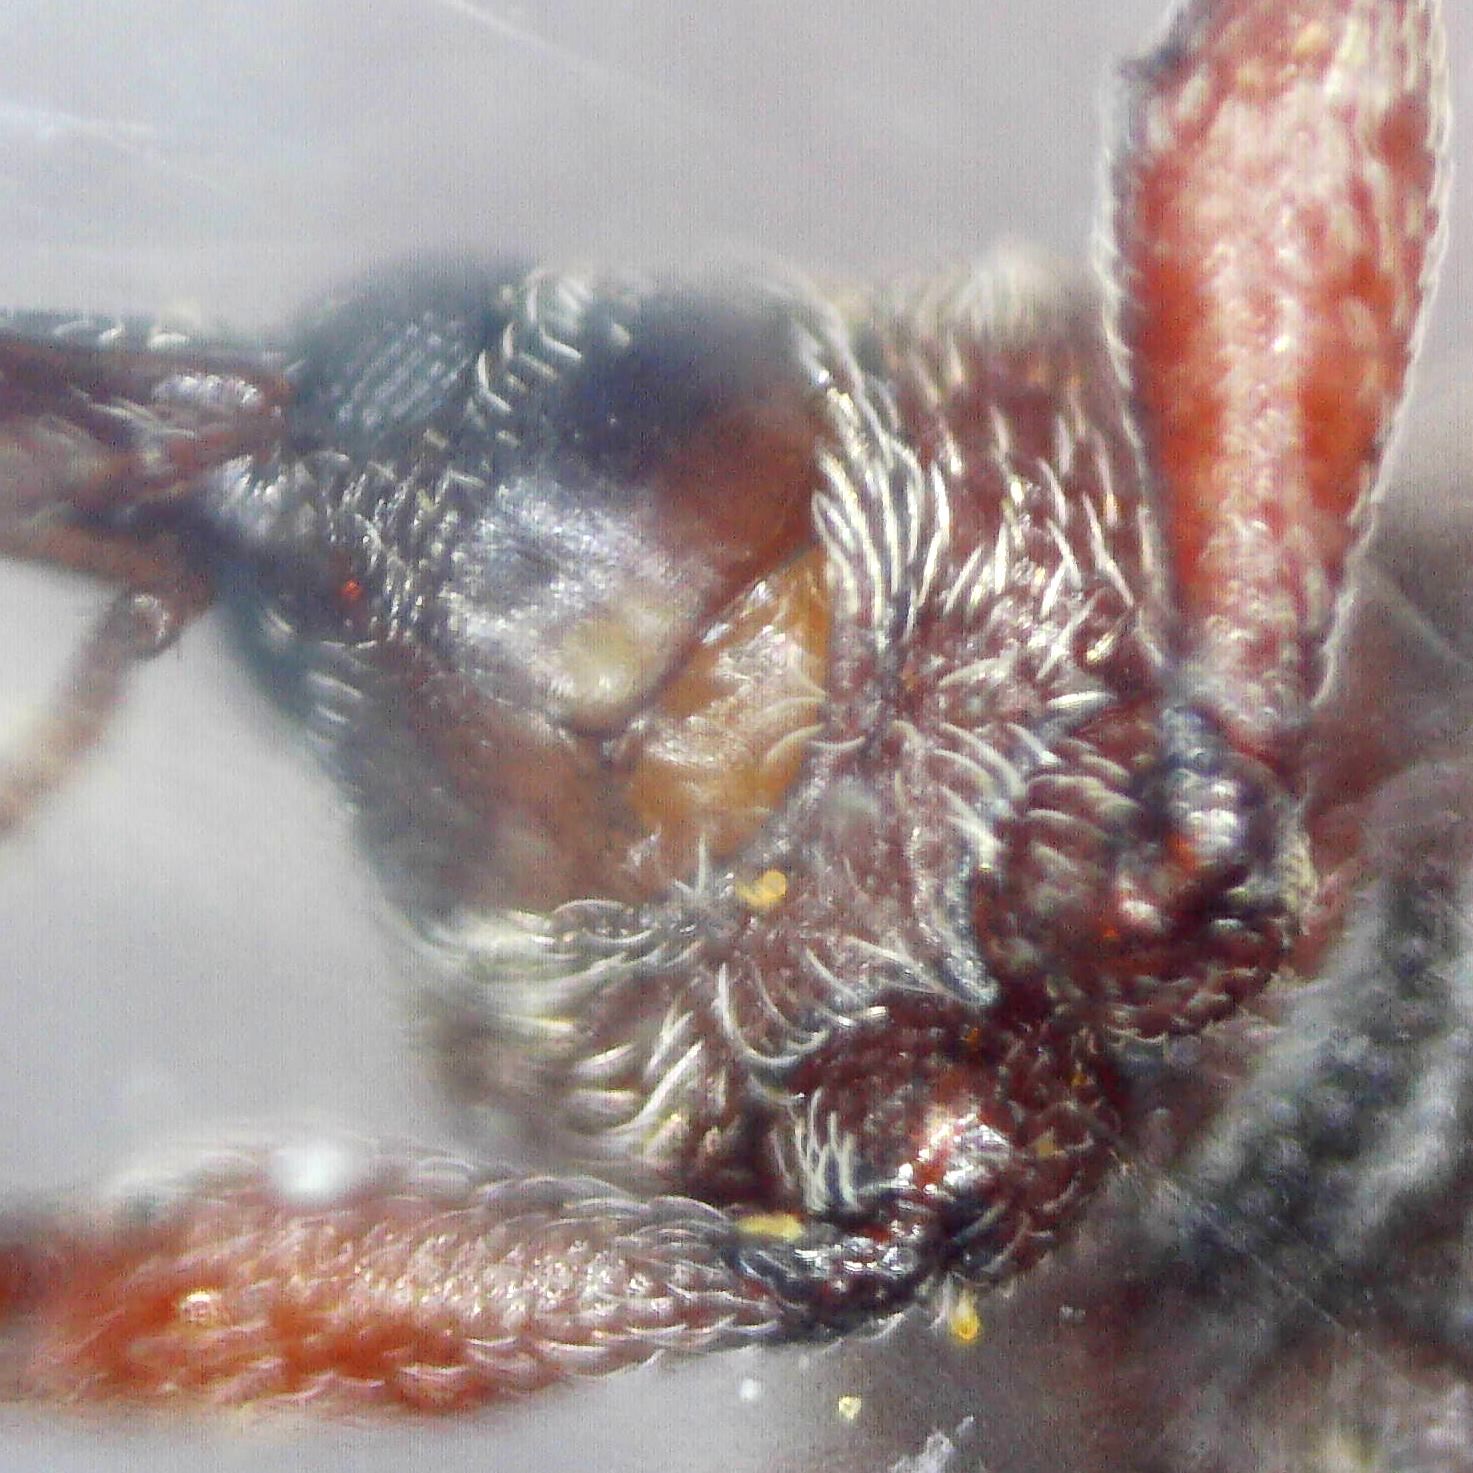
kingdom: Animalia
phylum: Arthropoda
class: Insecta
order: Coleoptera
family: Curculionidae
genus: Dorytomus
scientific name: Dorytomus taeniatus
